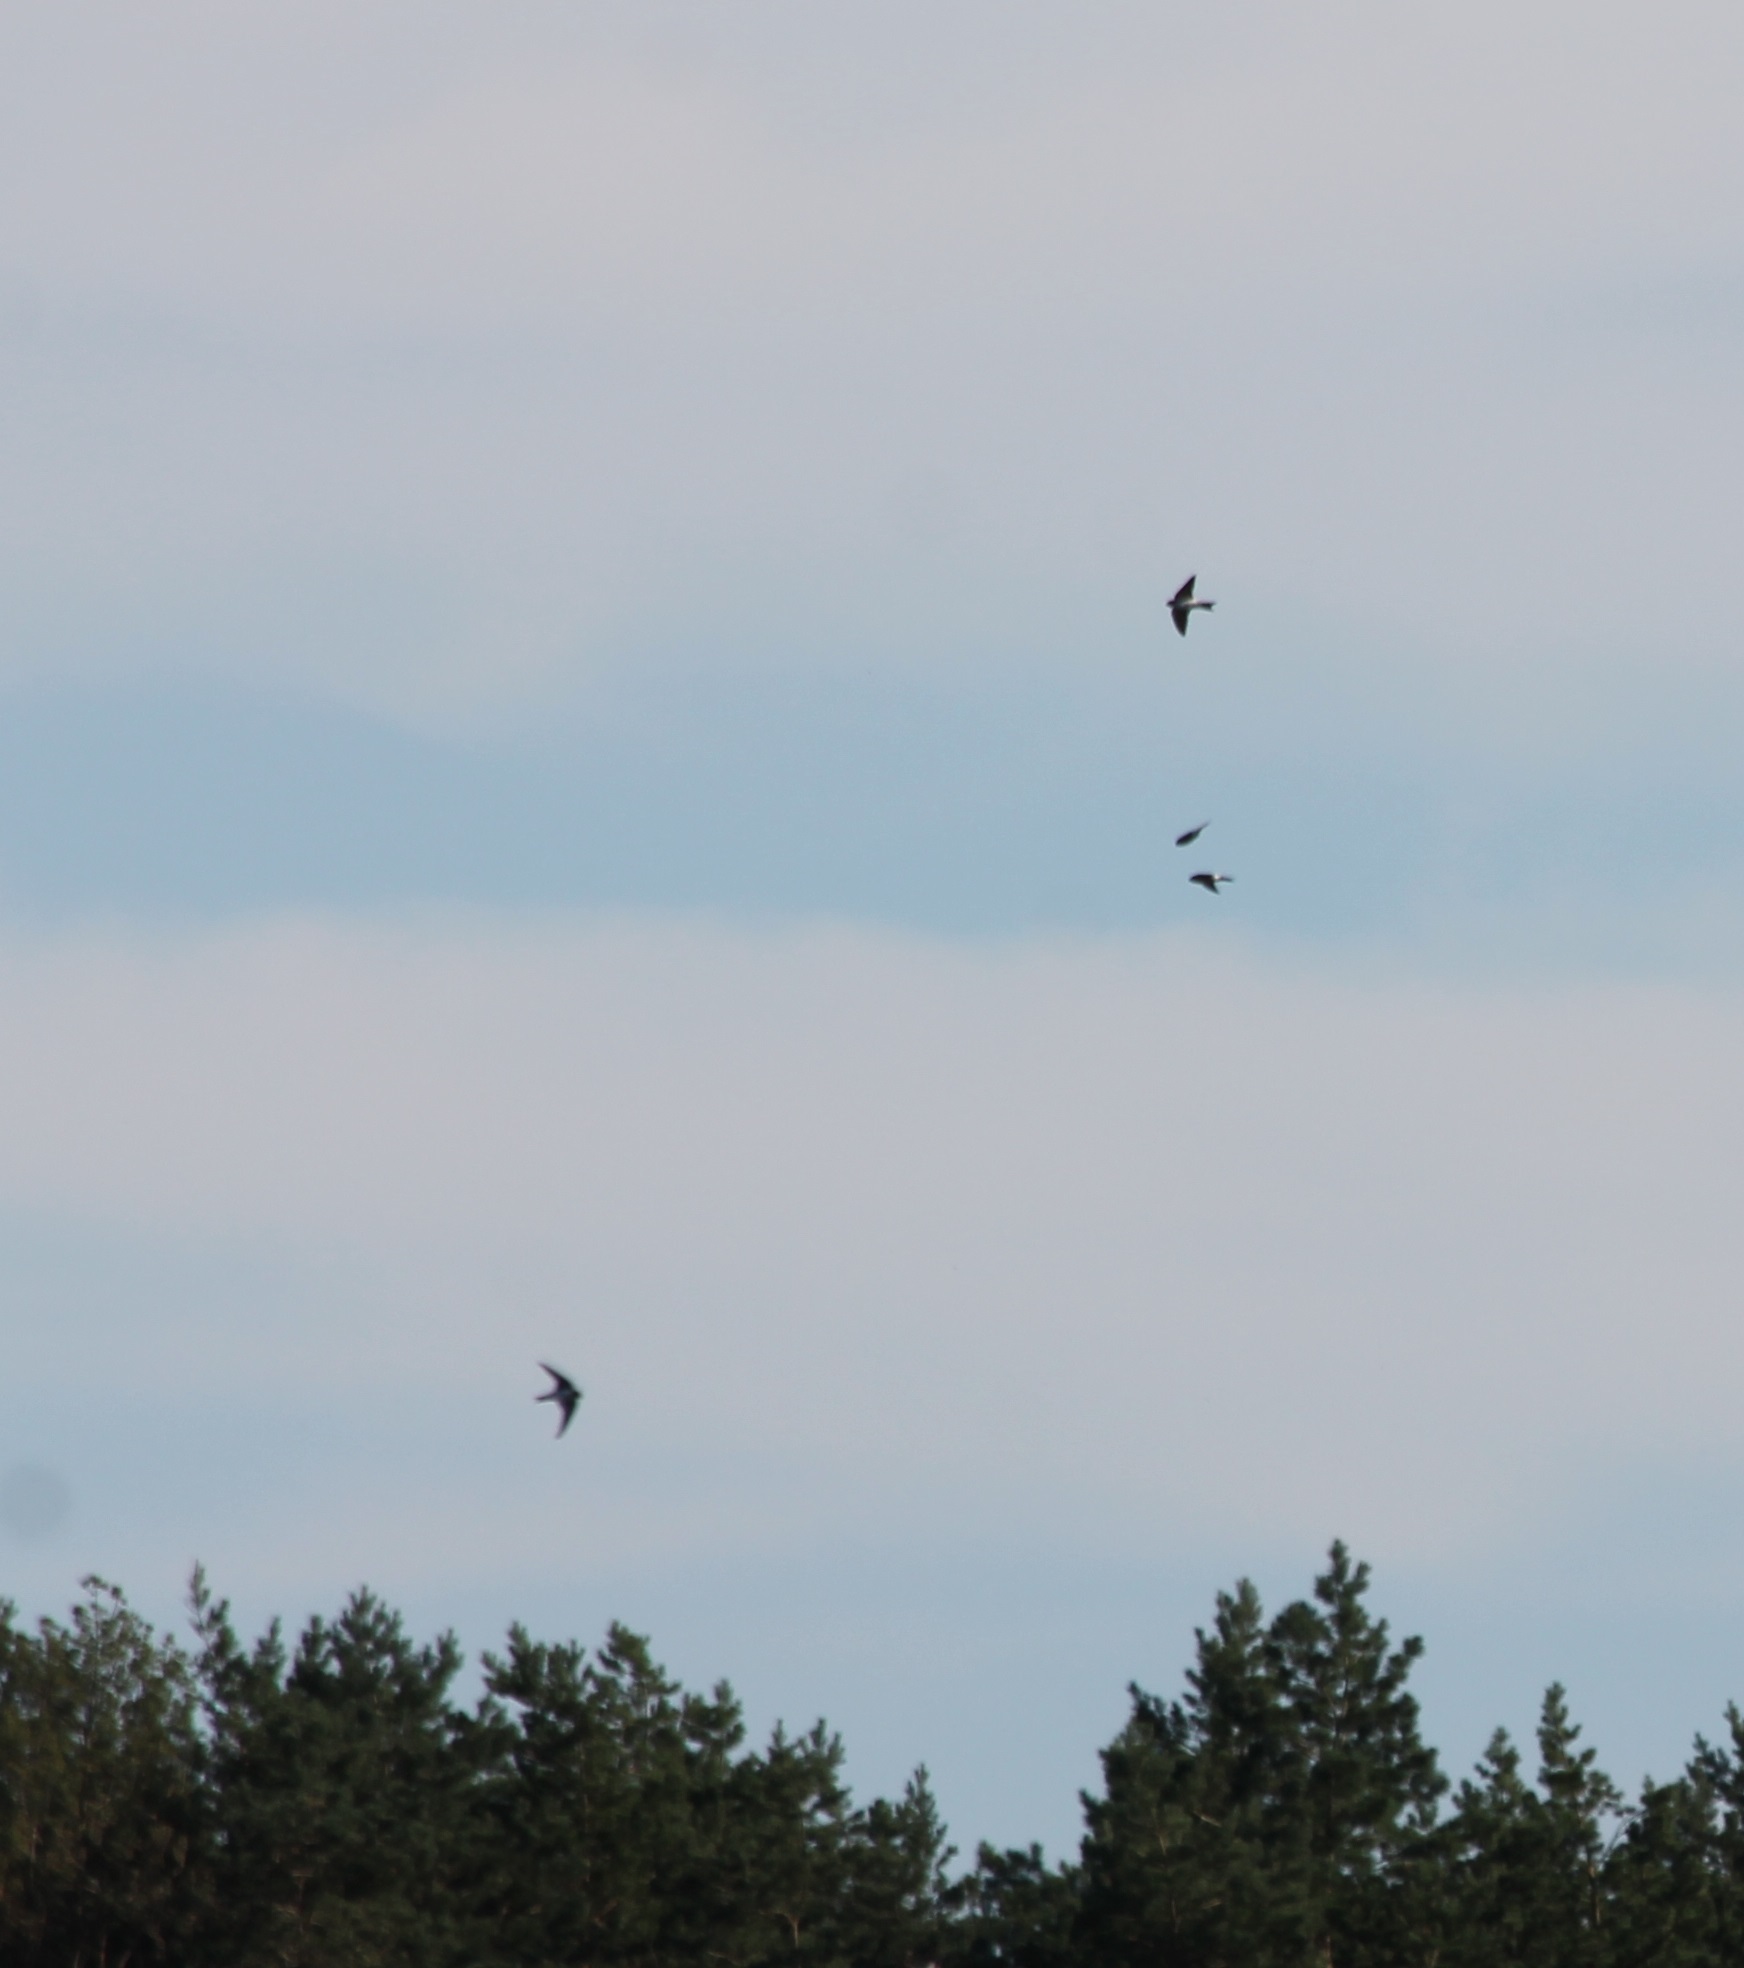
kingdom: Animalia
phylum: Chordata
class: Aves
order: Passeriformes
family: Hirundinidae
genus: Delichon
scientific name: Delichon urbicum
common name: Common house martin
